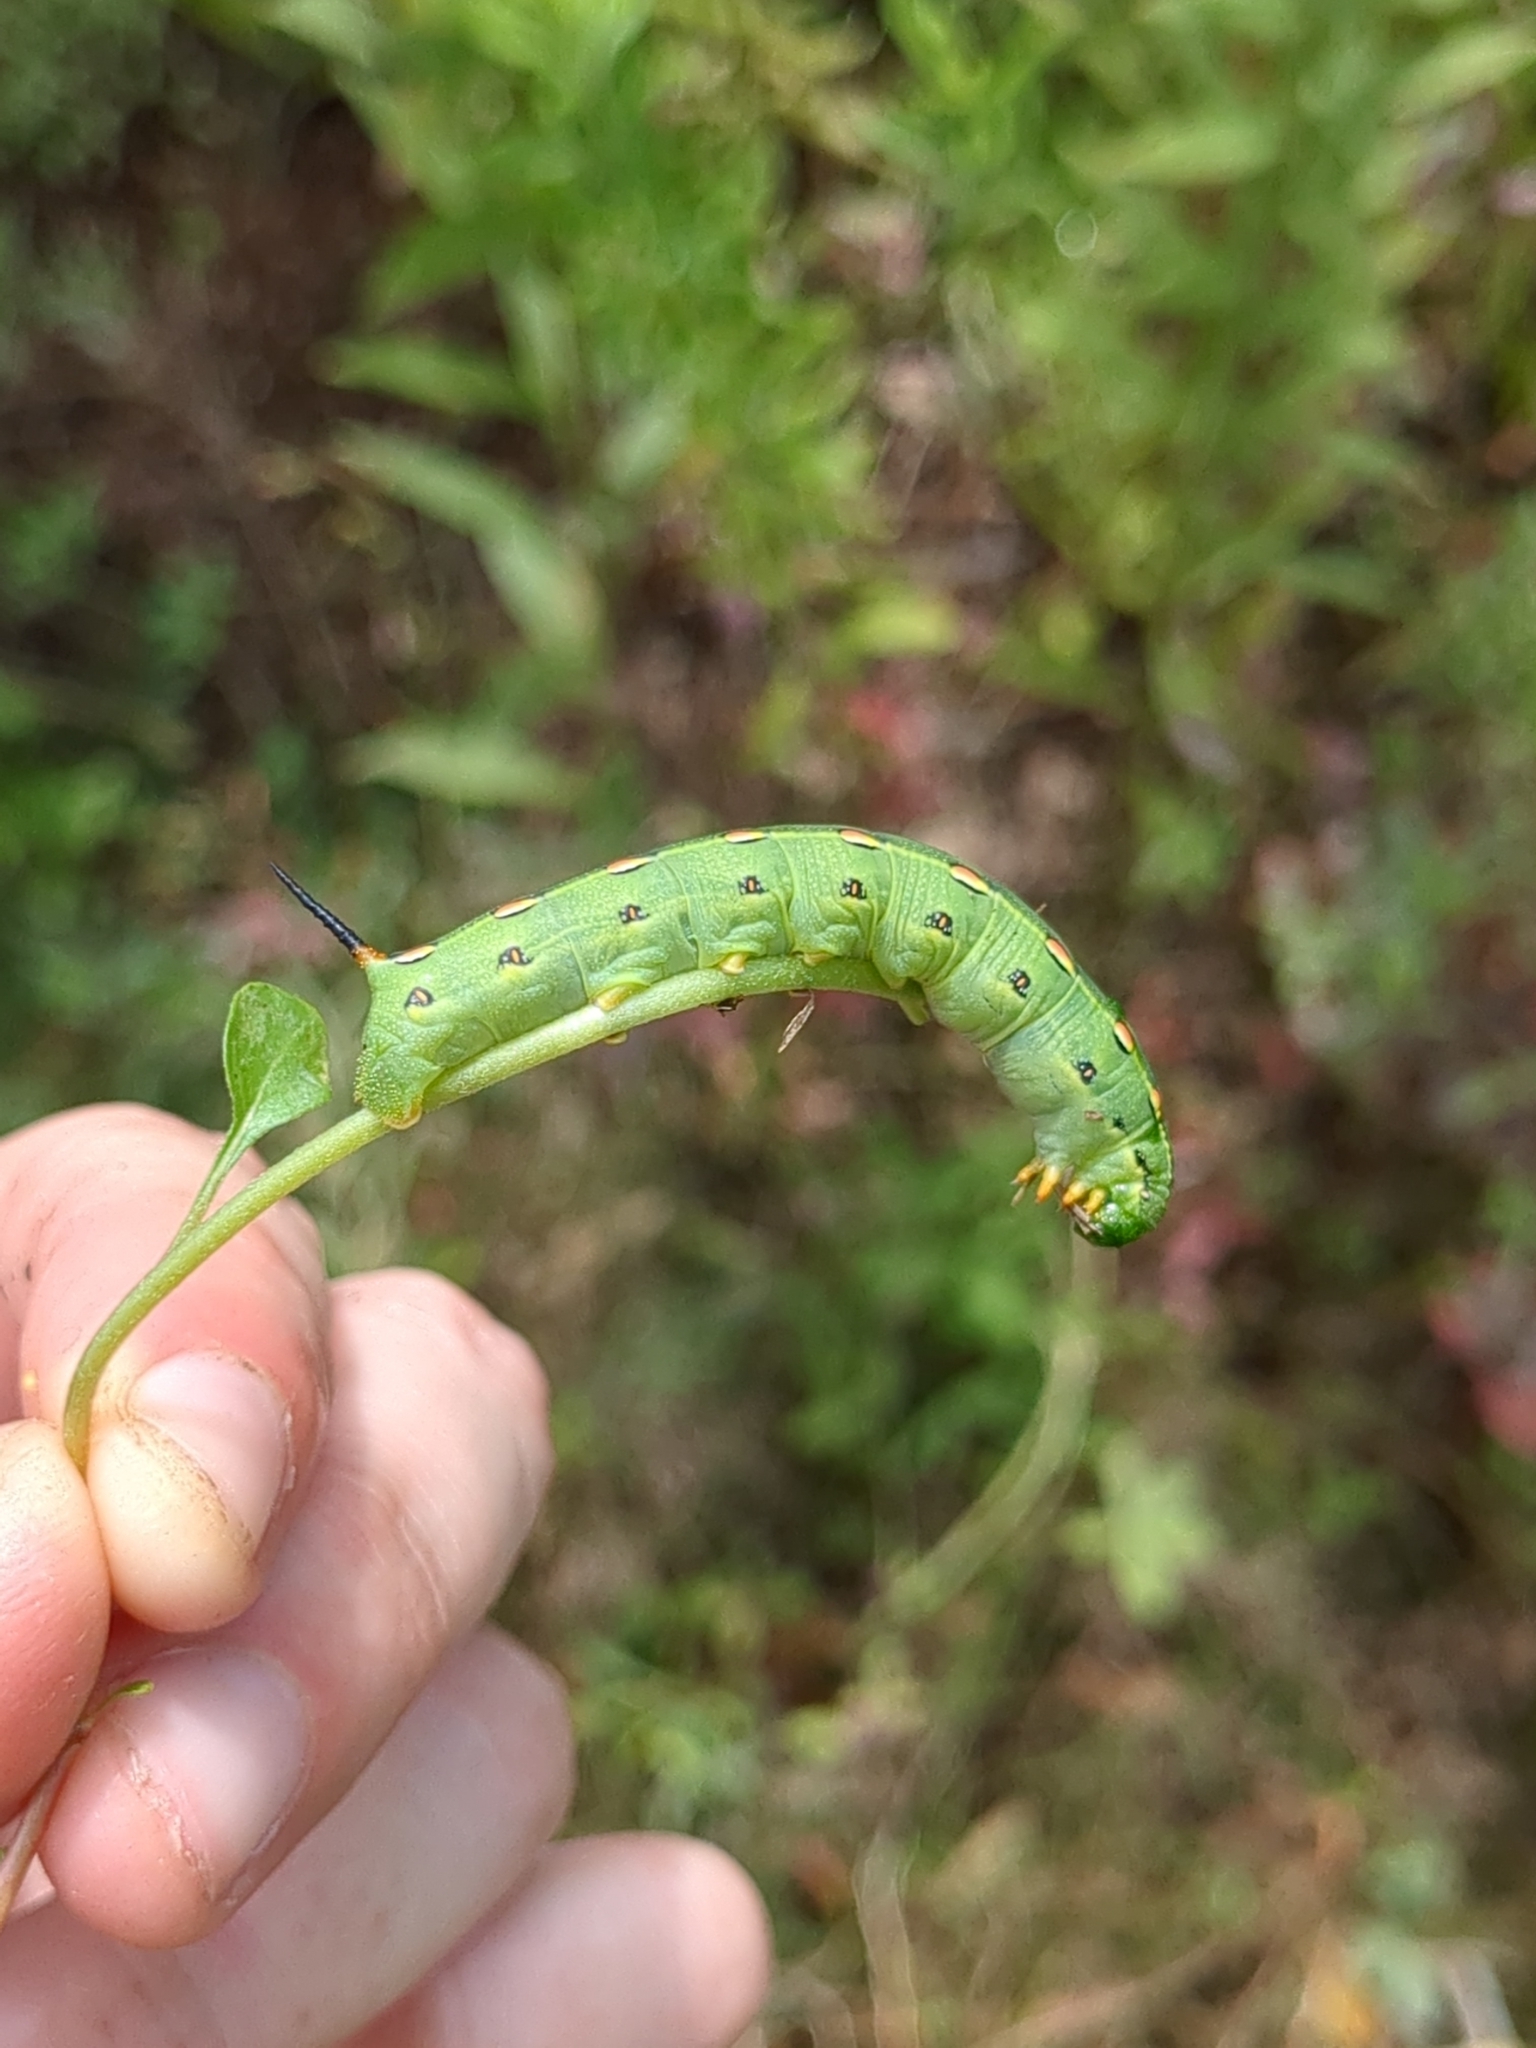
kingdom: Animalia
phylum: Arthropoda
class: Insecta
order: Lepidoptera
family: Sphingidae
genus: Hyles
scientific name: Hyles lineata
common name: White-lined sphinx
